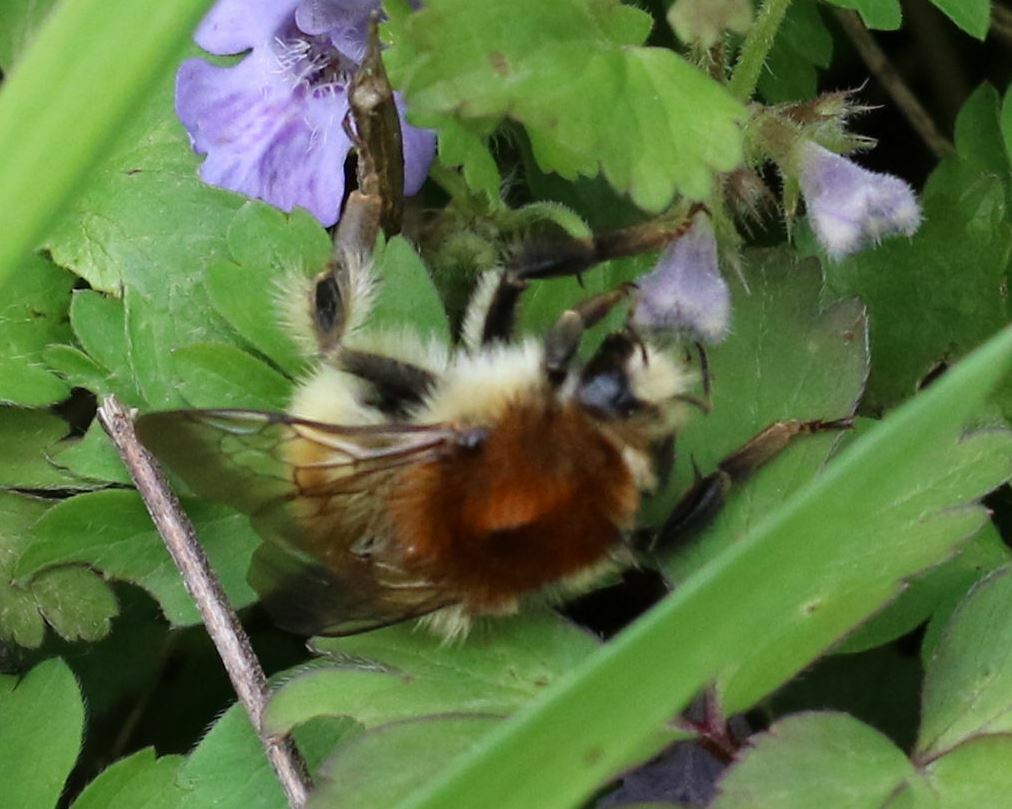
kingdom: Animalia
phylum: Arthropoda
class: Insecta
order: Hymenoptera
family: Apidae
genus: Bombus
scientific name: Bombus humilis
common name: Brown-banded carder-bee
